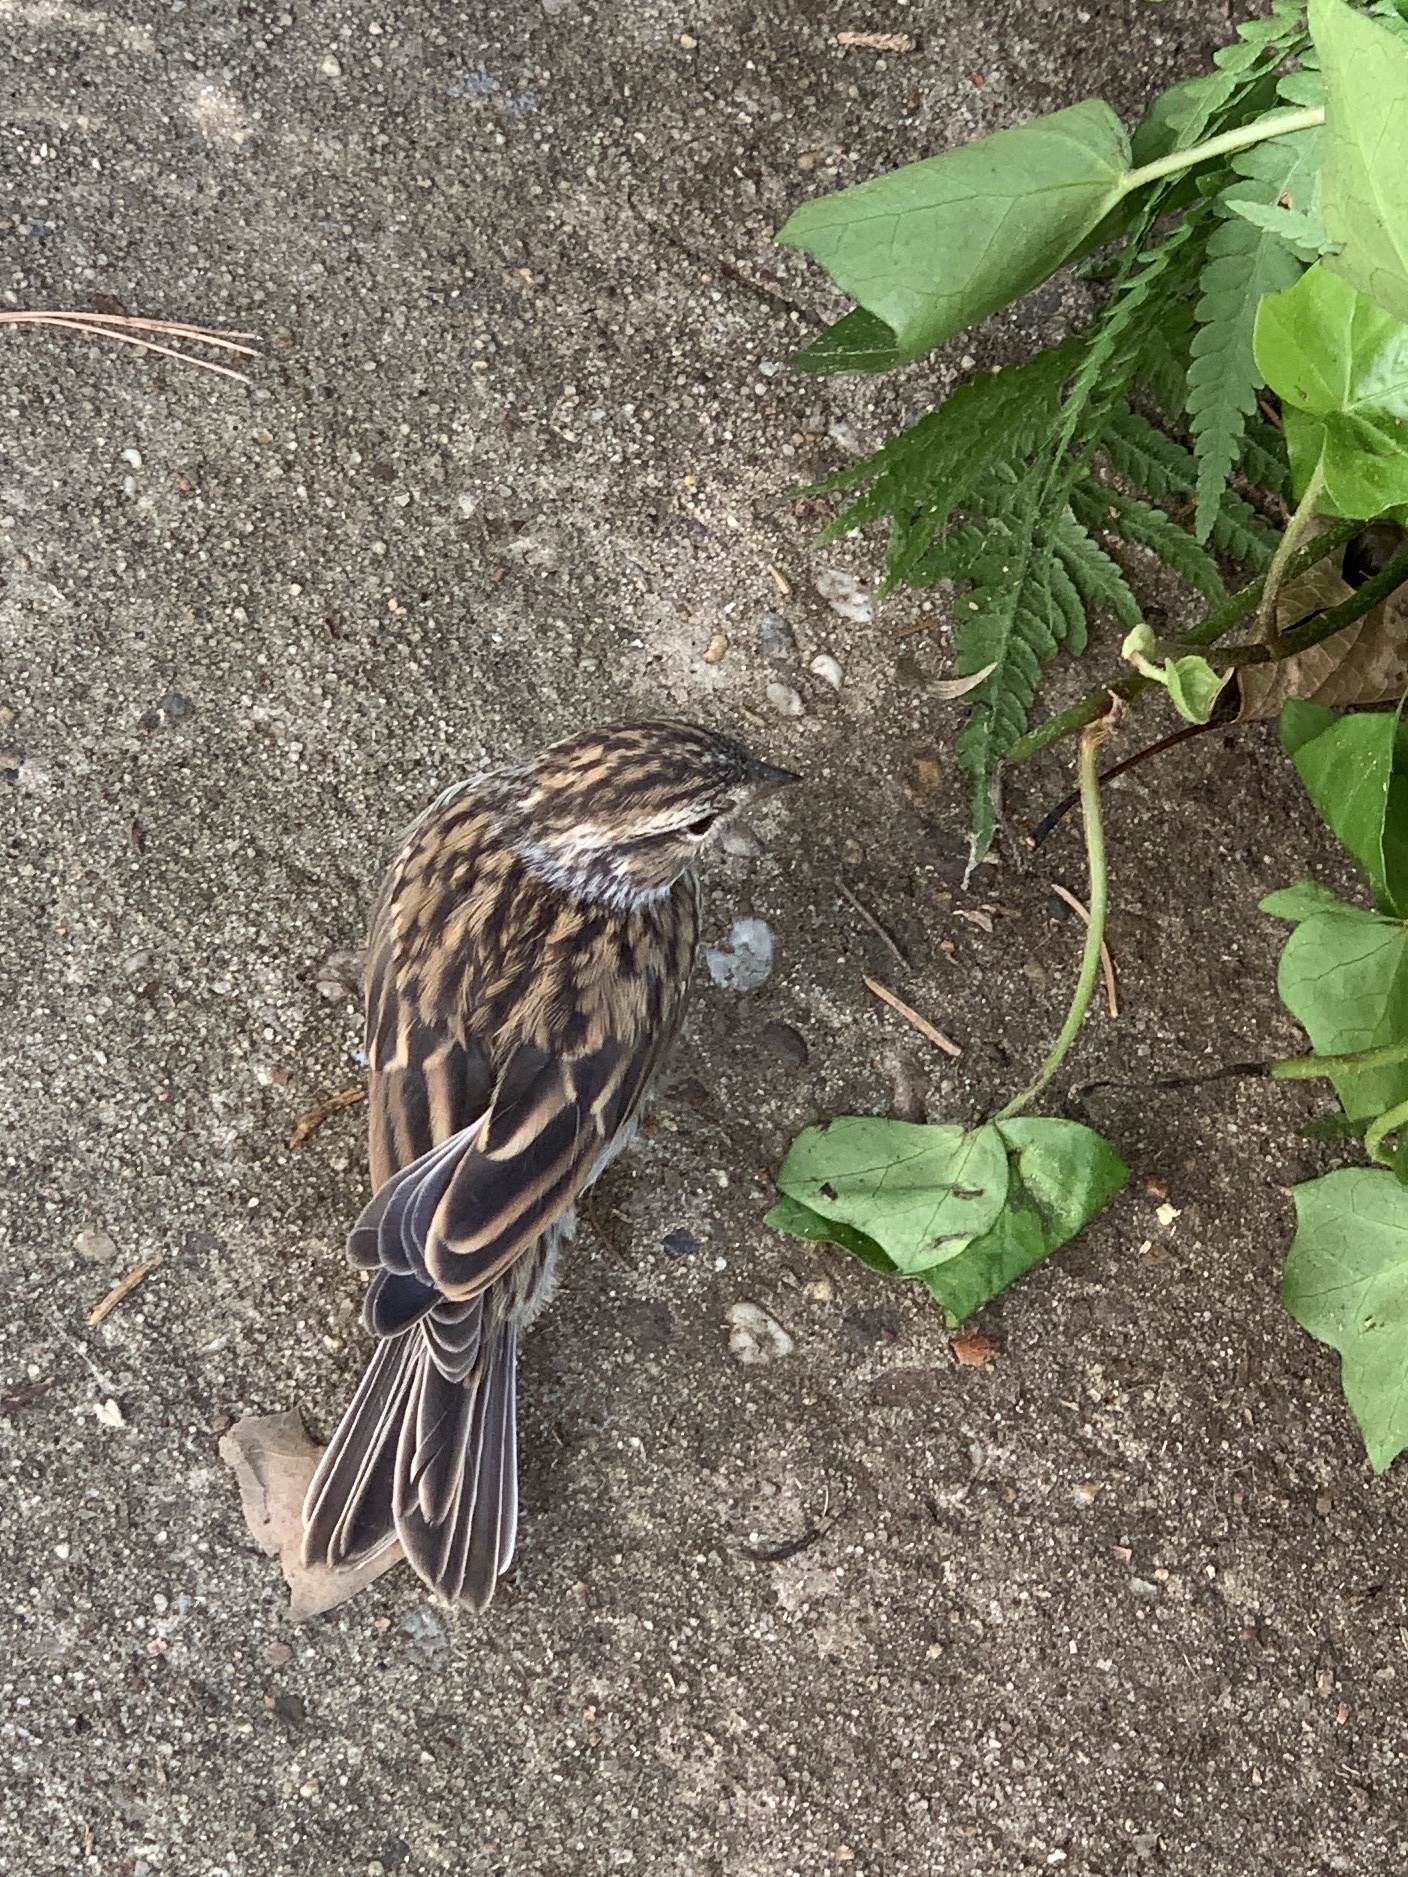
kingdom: Animalia
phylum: Chordata
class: Aves
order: Passeriformes
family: Passerellidae
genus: Spizella
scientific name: Spizella passerina
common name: Chipping sparrow
